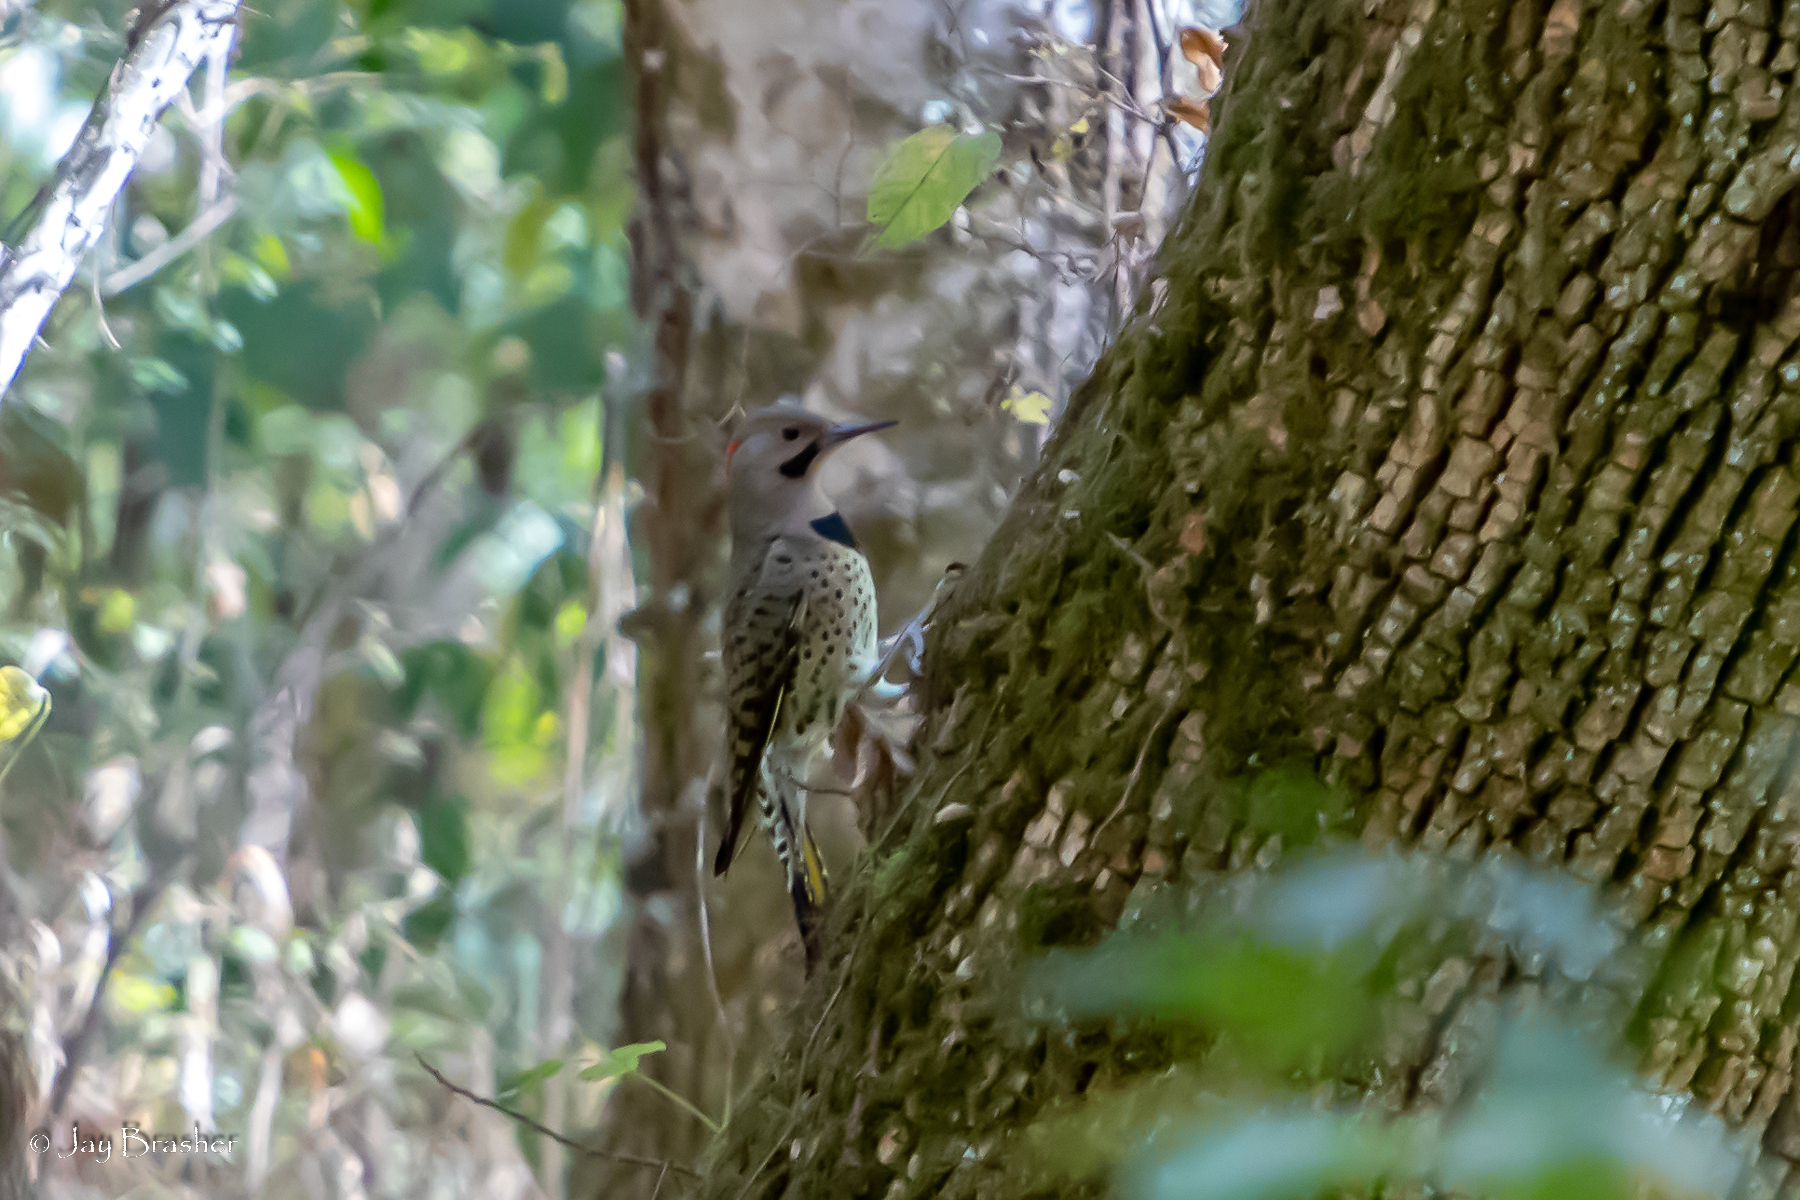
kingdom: Animalia
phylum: Chordata
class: Aves
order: Piciformes
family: Picidae
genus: Colaptes
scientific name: Colaptes auratus
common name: Northern flicker
